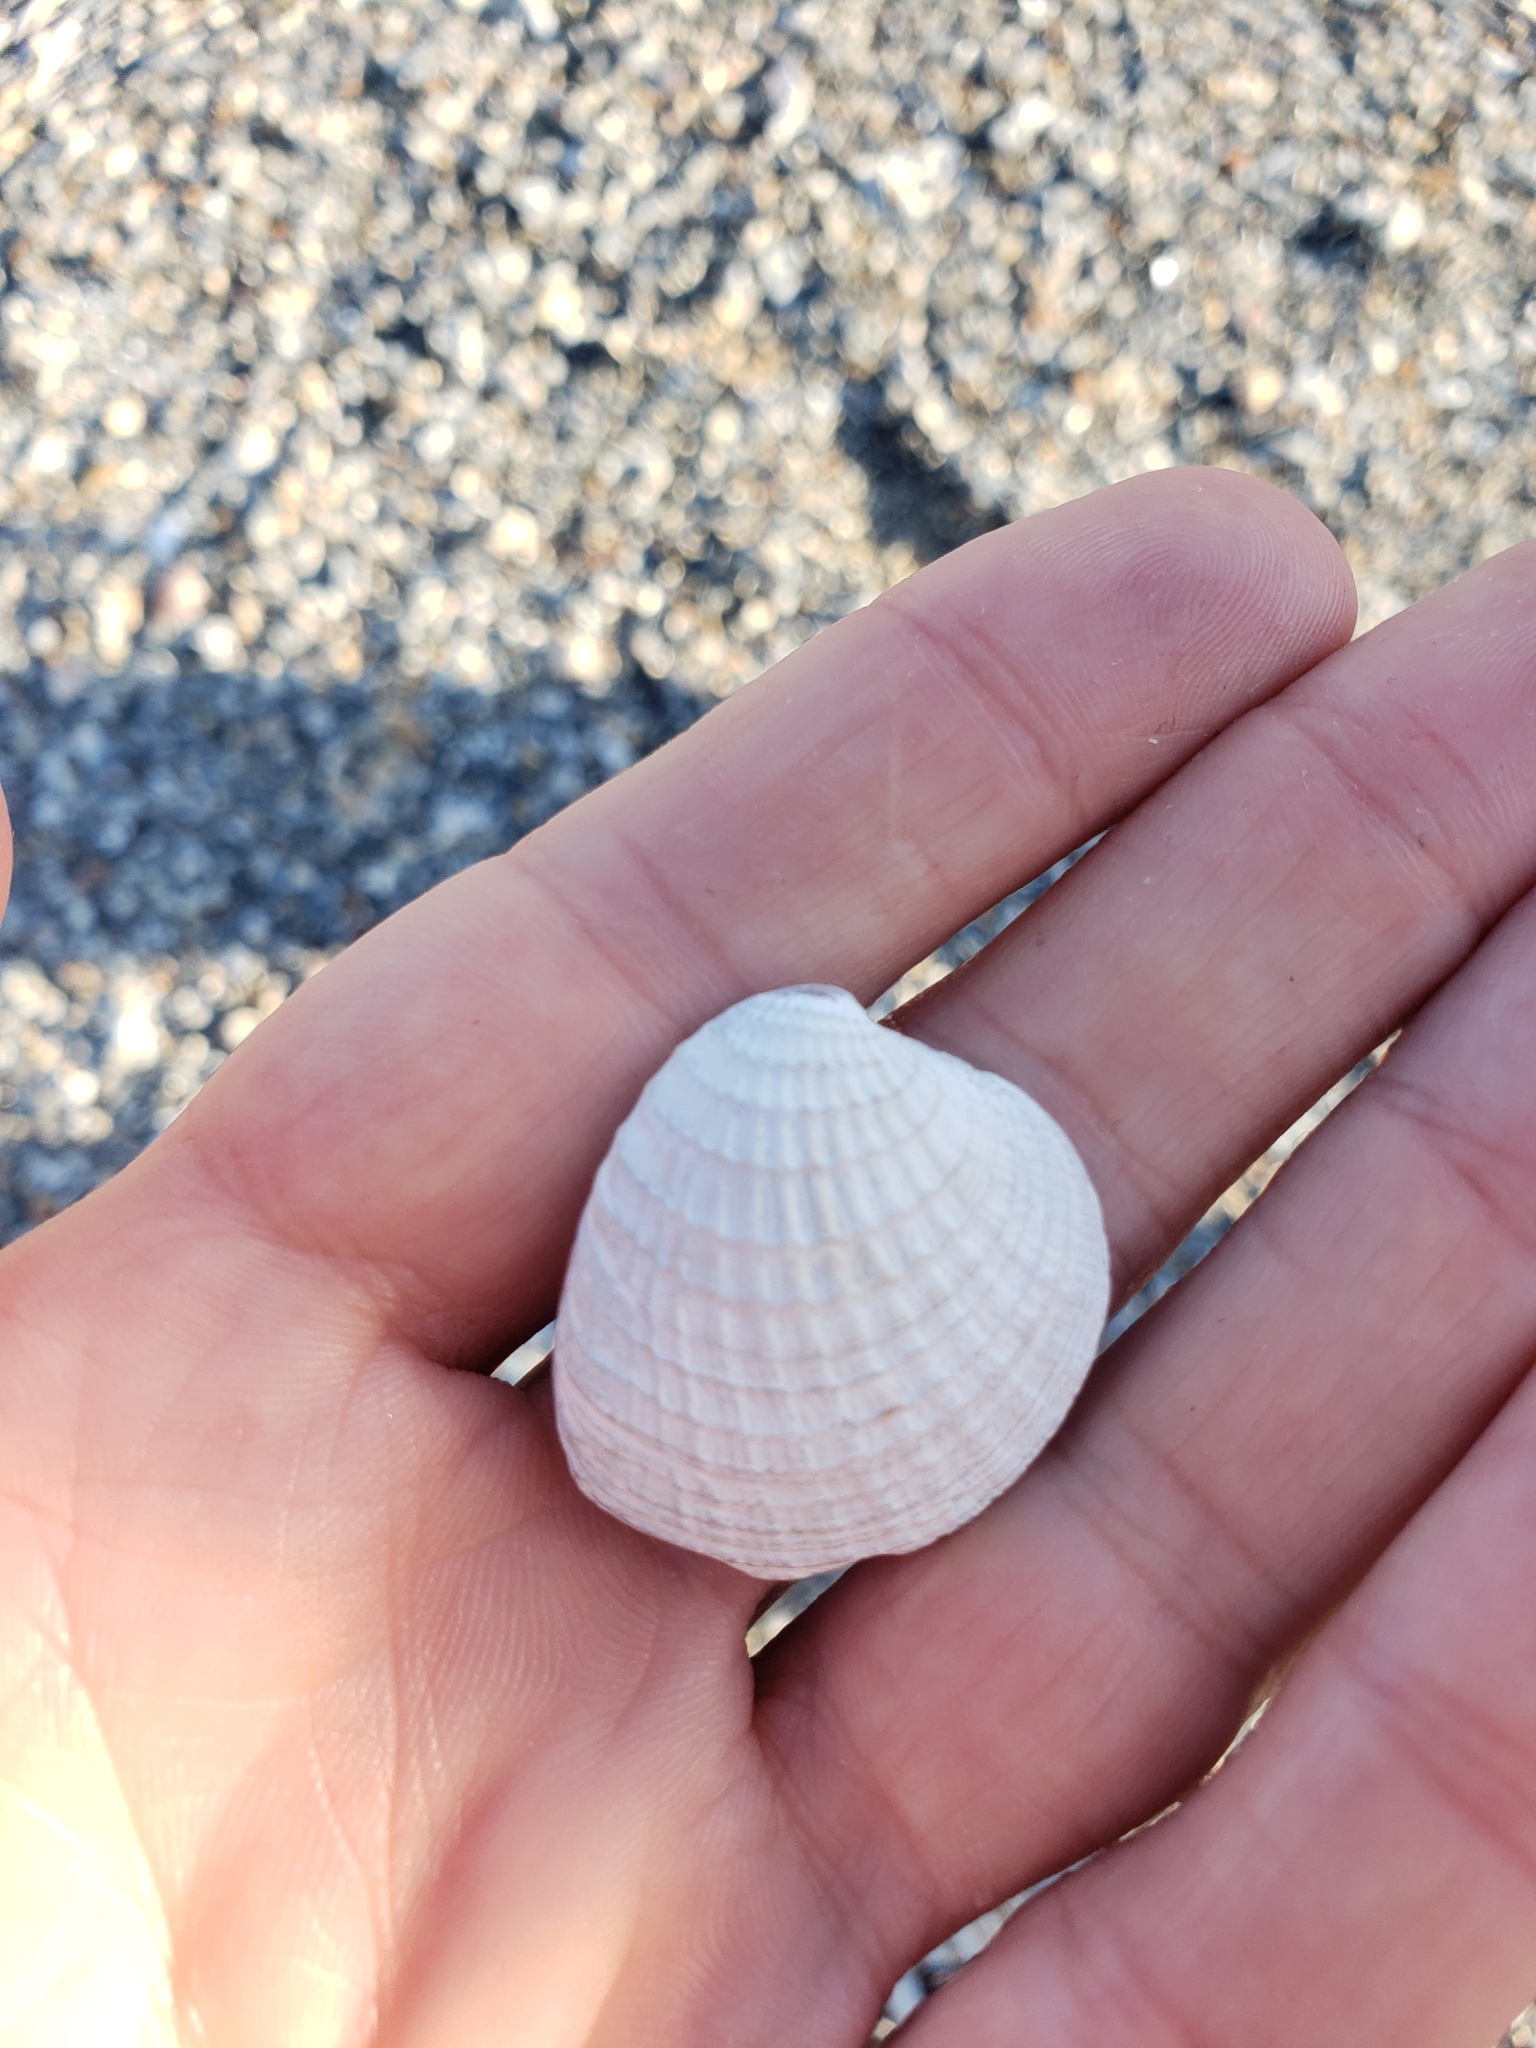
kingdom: Animalia
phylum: Mollusca
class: Bivalvia
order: Venerida
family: Veneridae
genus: Chione
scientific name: Chione elevata
